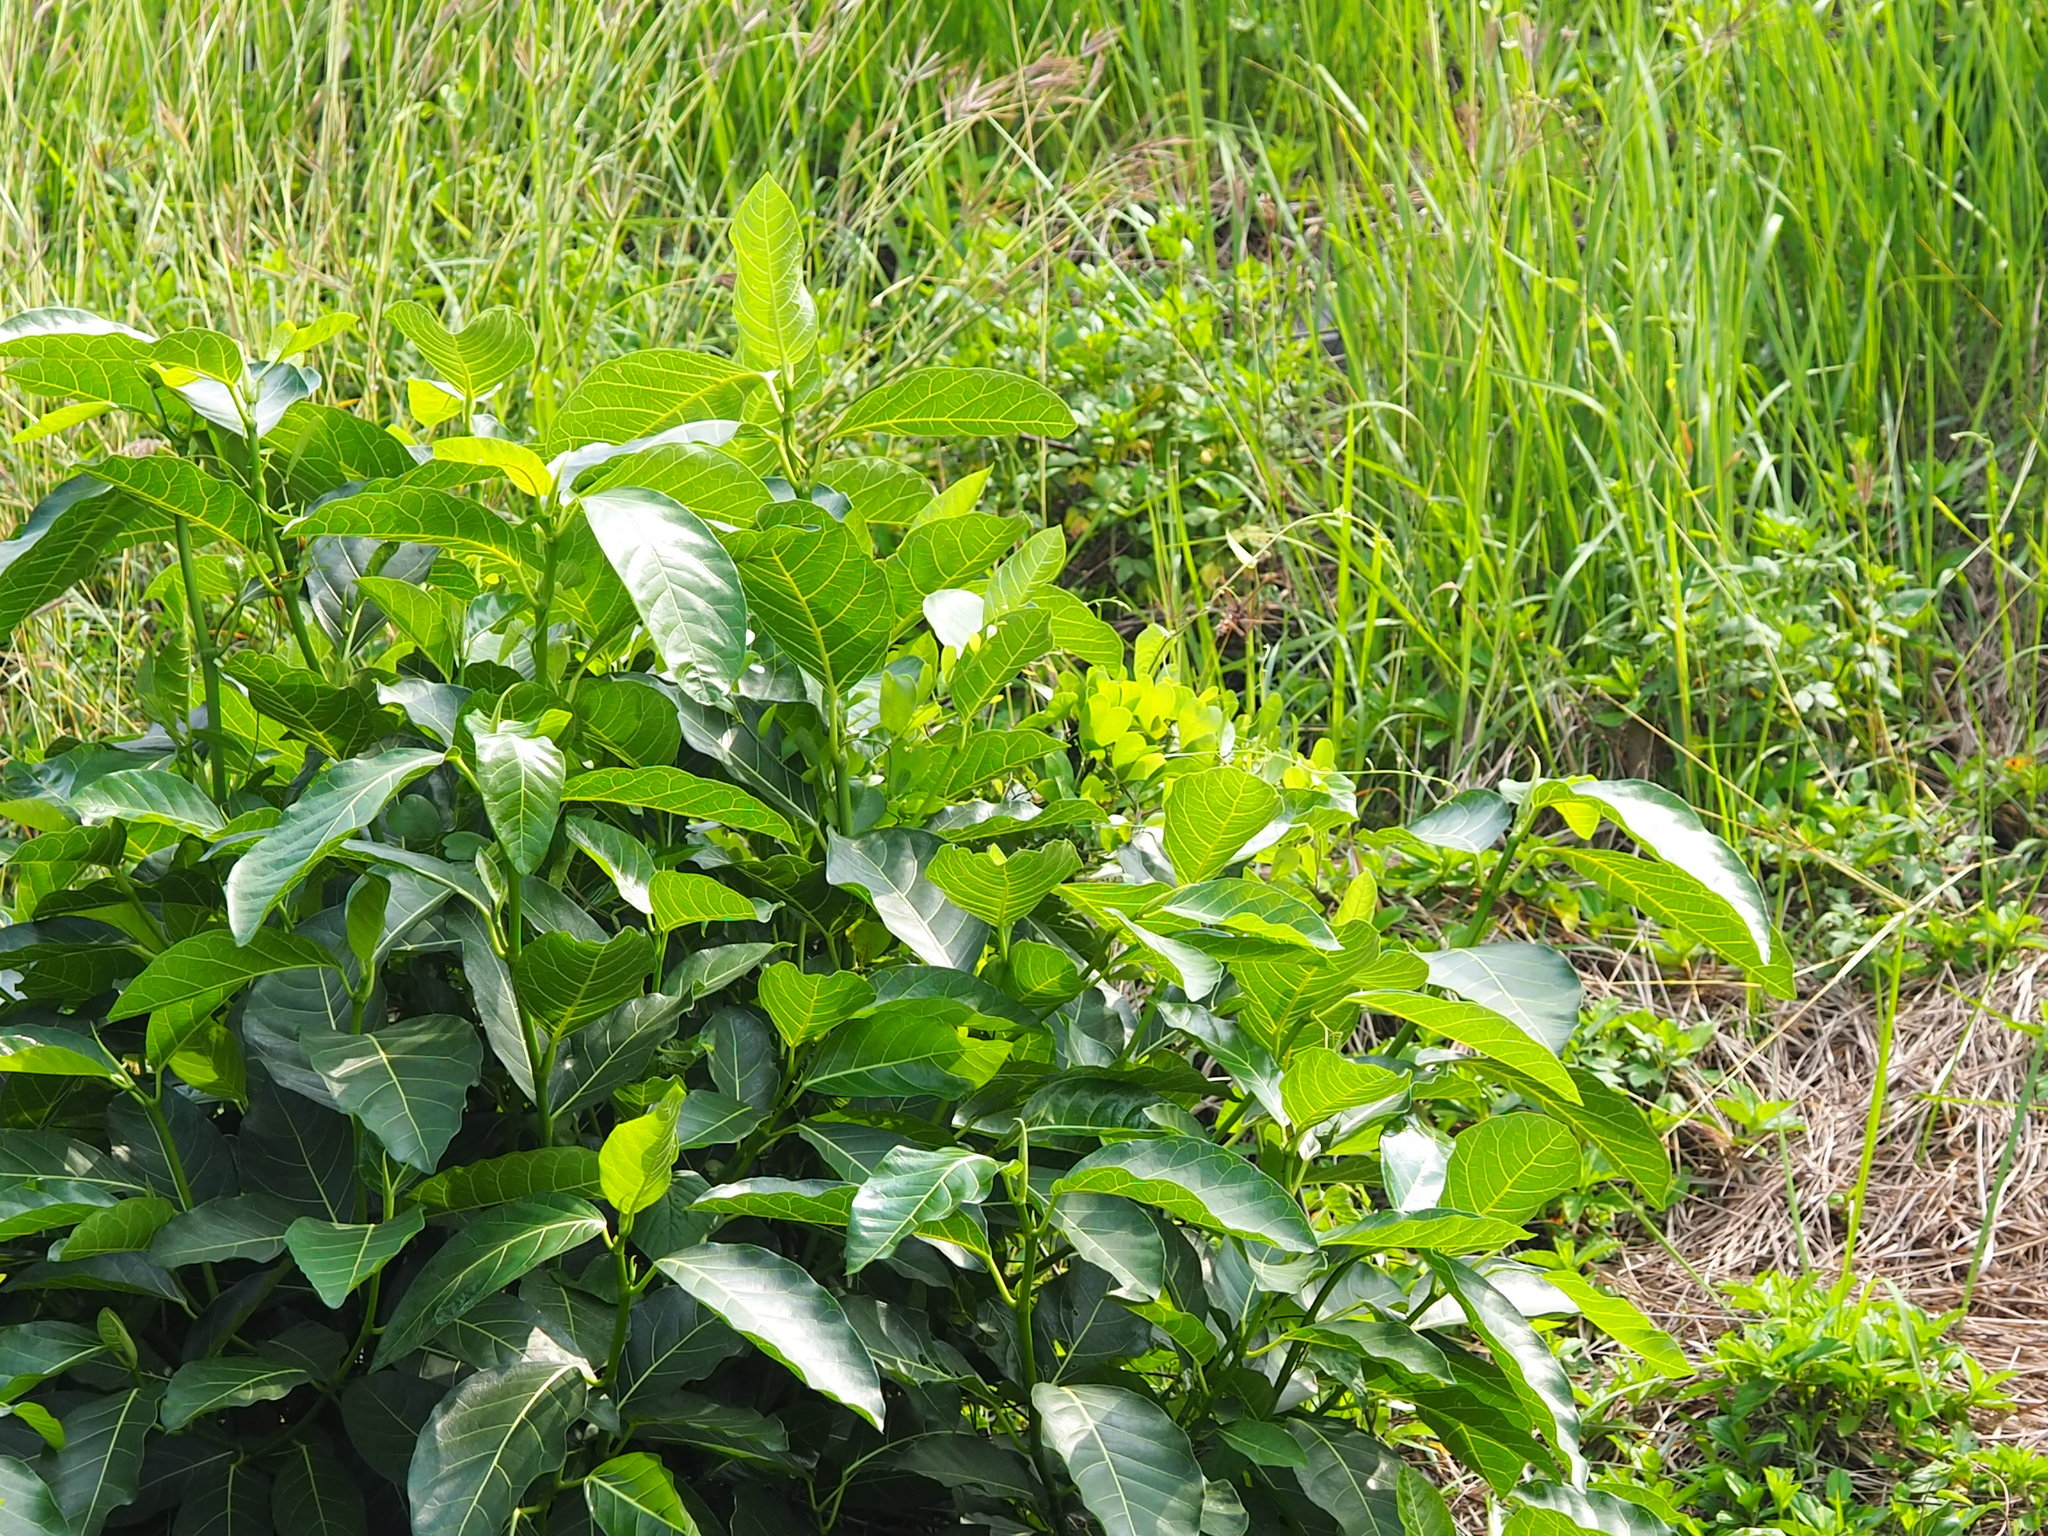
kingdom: Plantae
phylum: Tracheophyta
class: Magnoliopsida
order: Rosales
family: Moraceae
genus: Ficus
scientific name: Ficus septica
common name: Septic fig
